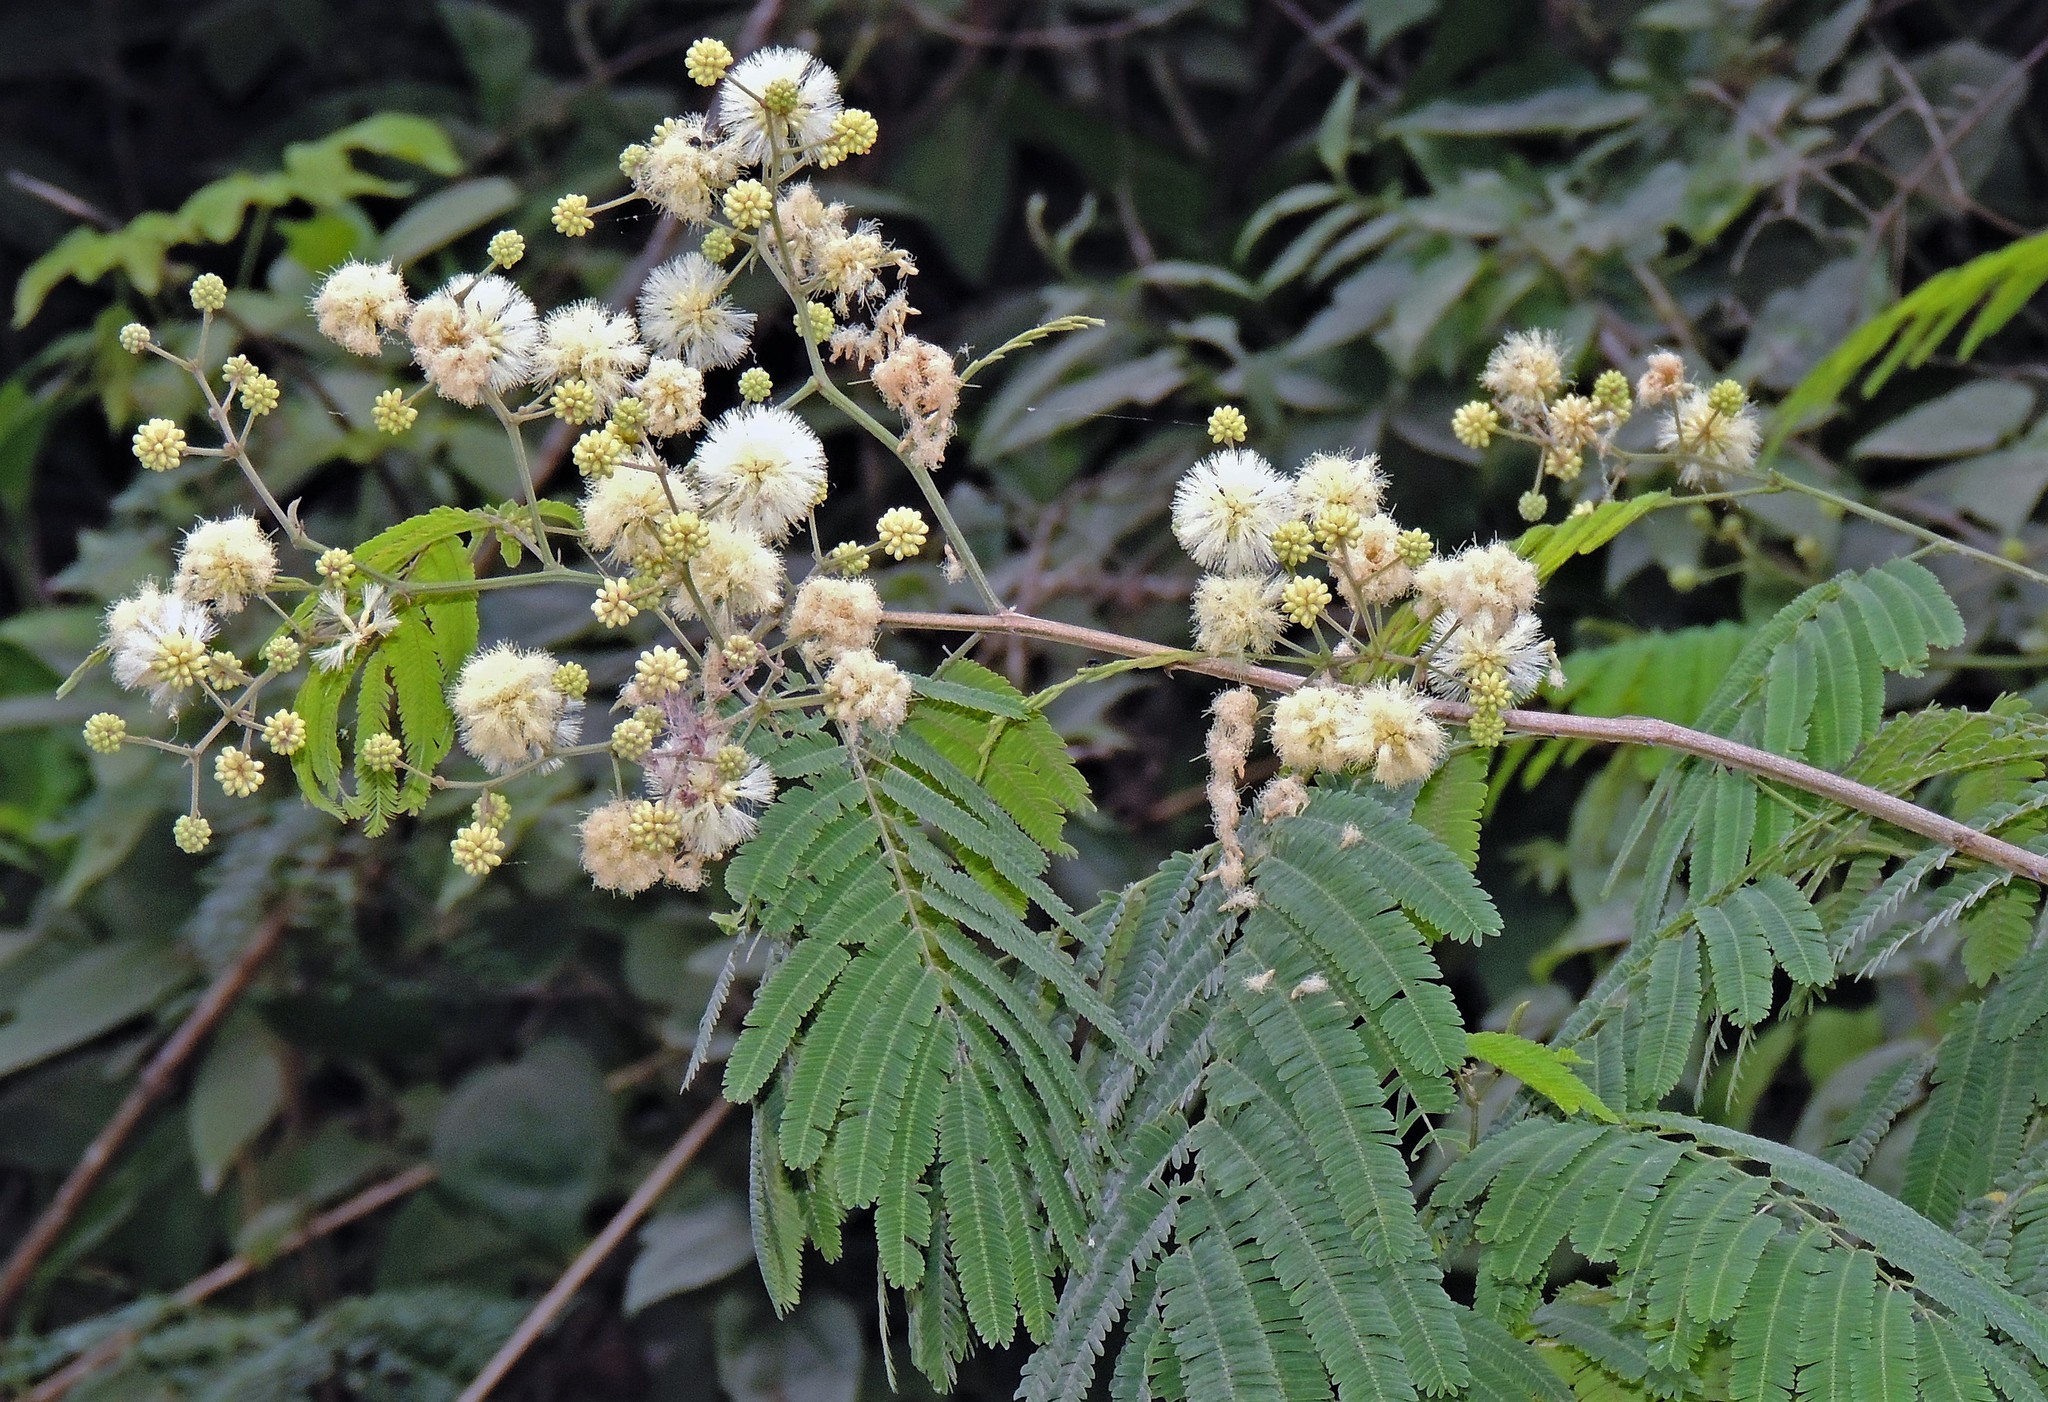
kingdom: Plantae
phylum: Tracheophyta
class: Magnoliopsida
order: Fabales
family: Fabaceae
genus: Senegalia
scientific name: Senegalia tucumanensis
